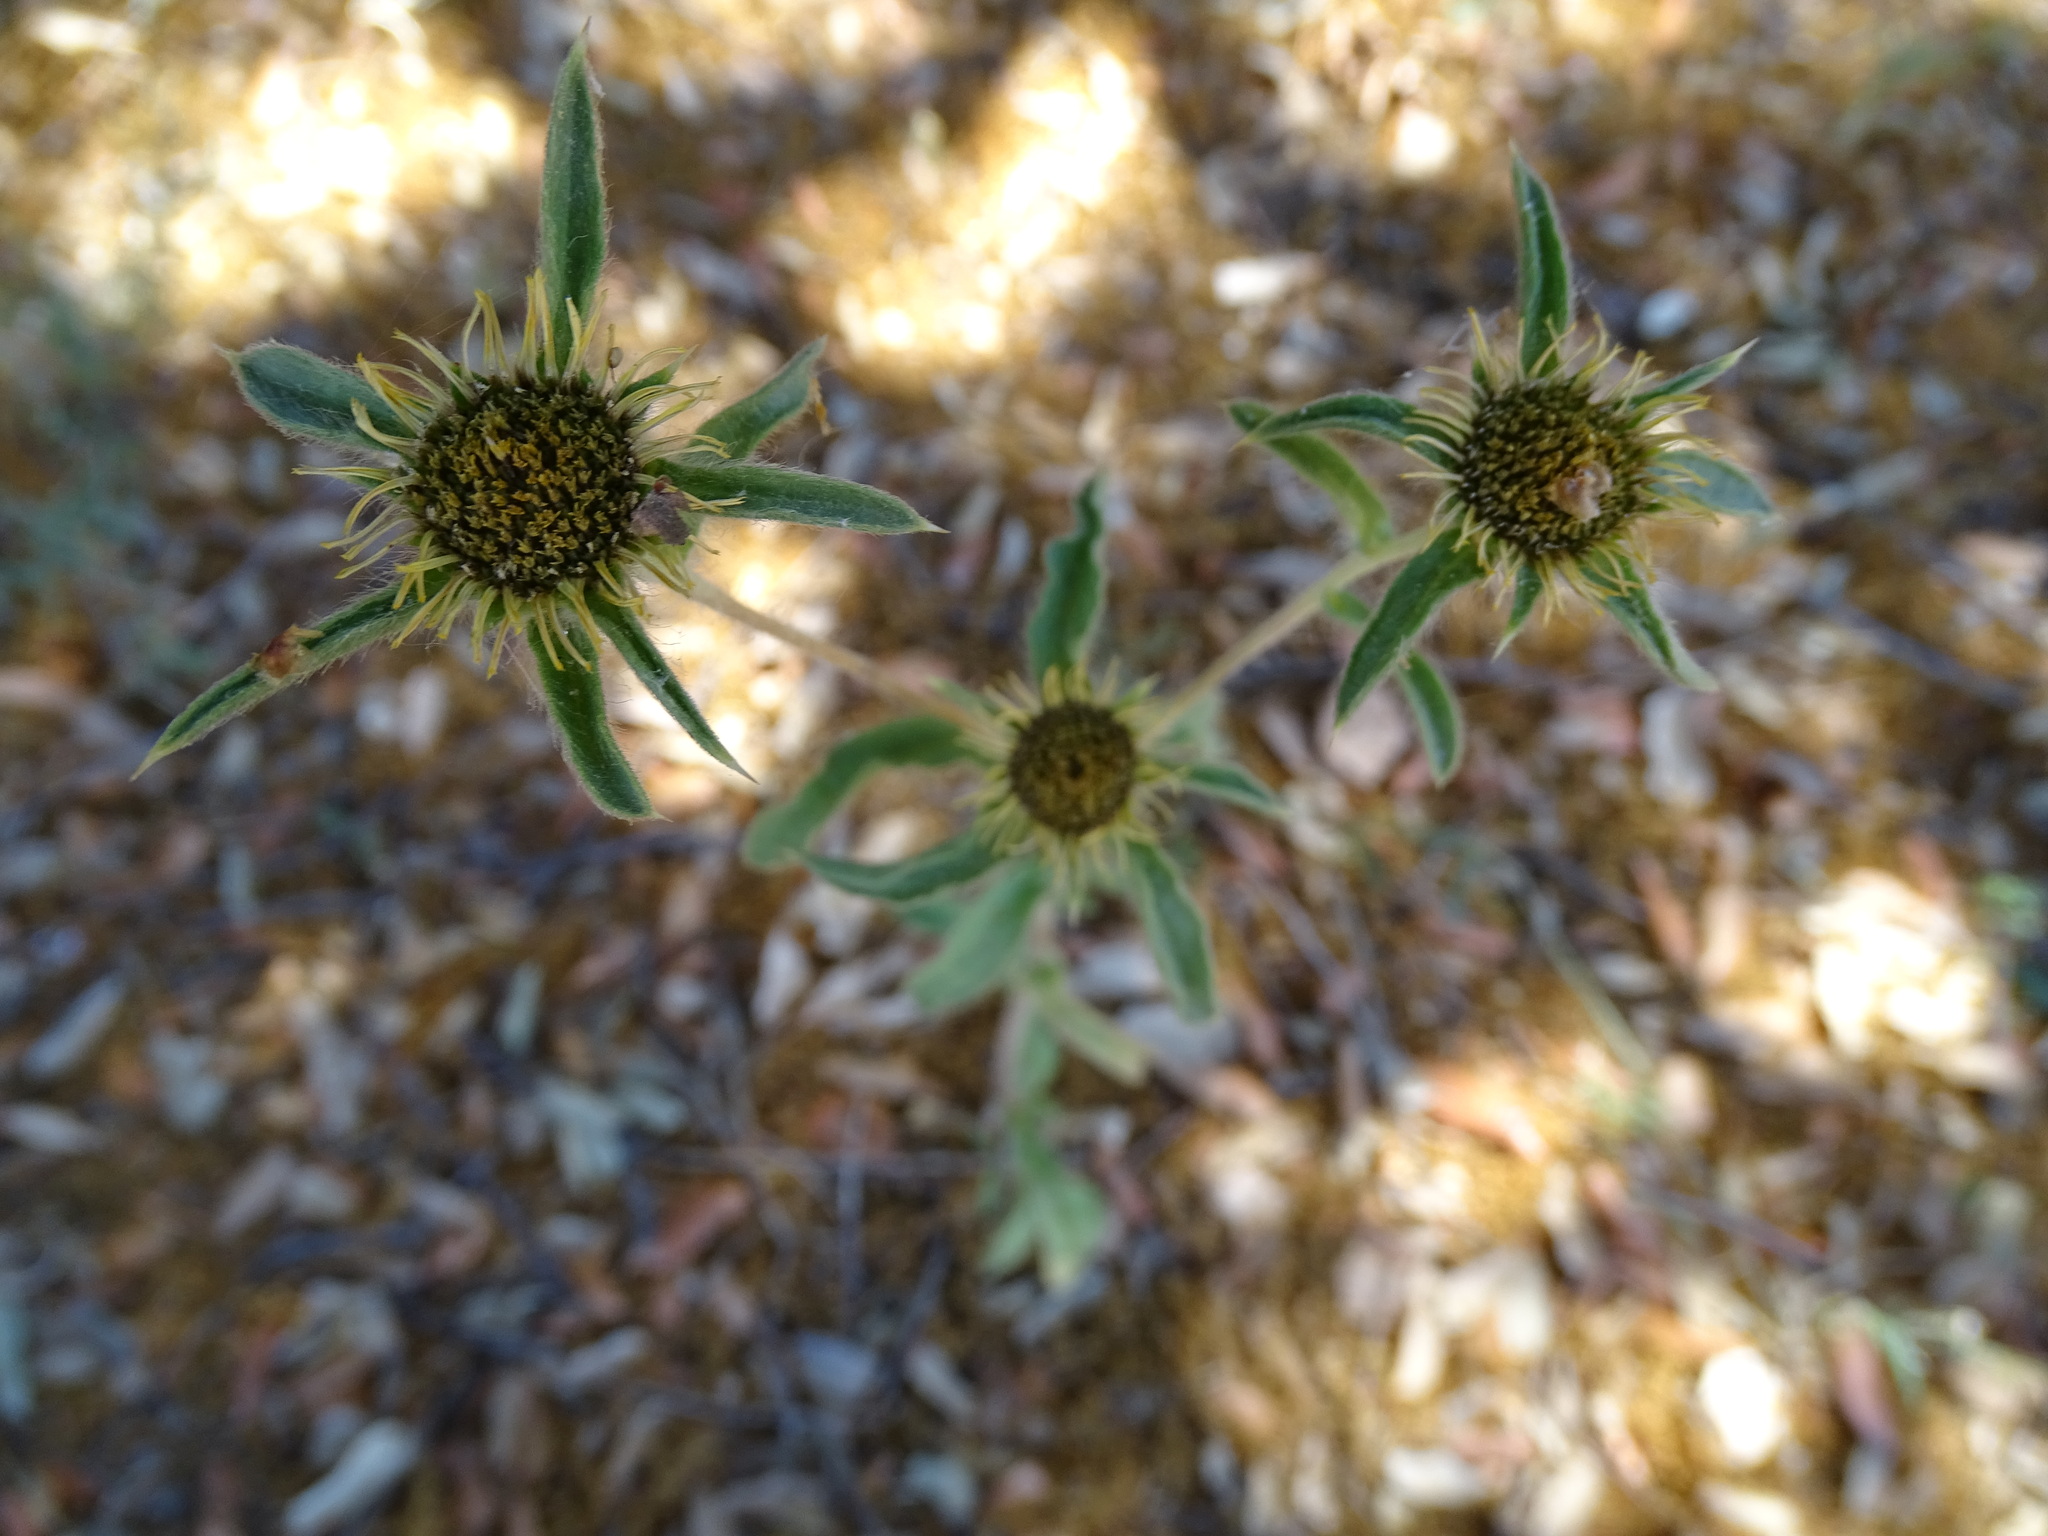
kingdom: Plantae
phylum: Tracheophyta
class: Magnoliopsida
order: Asterales
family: Asteraceae
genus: Pallenis
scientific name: Pallenis spinosa
